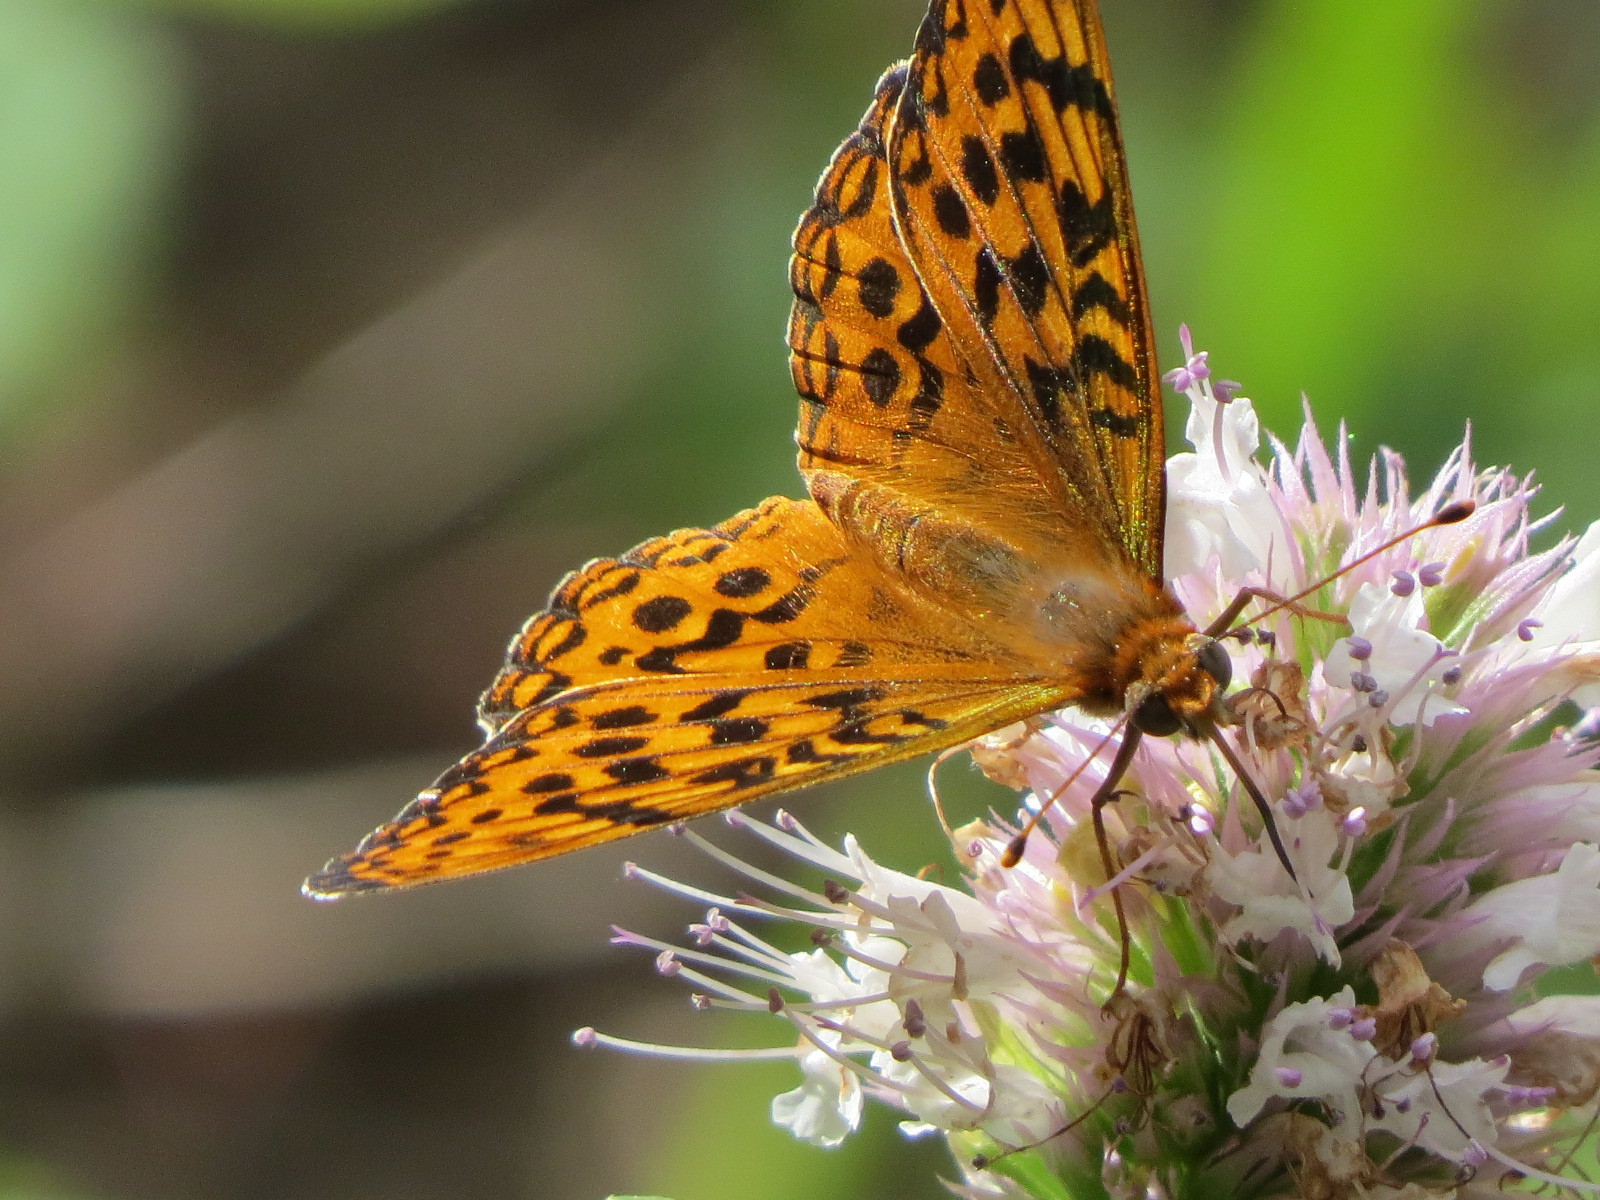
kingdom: Animalia
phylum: Arthropoda
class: Insecta
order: Lepidoptera
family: Nymphalidae
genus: Speyeria
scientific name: Speyeria zerene
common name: Zerene fritillary
